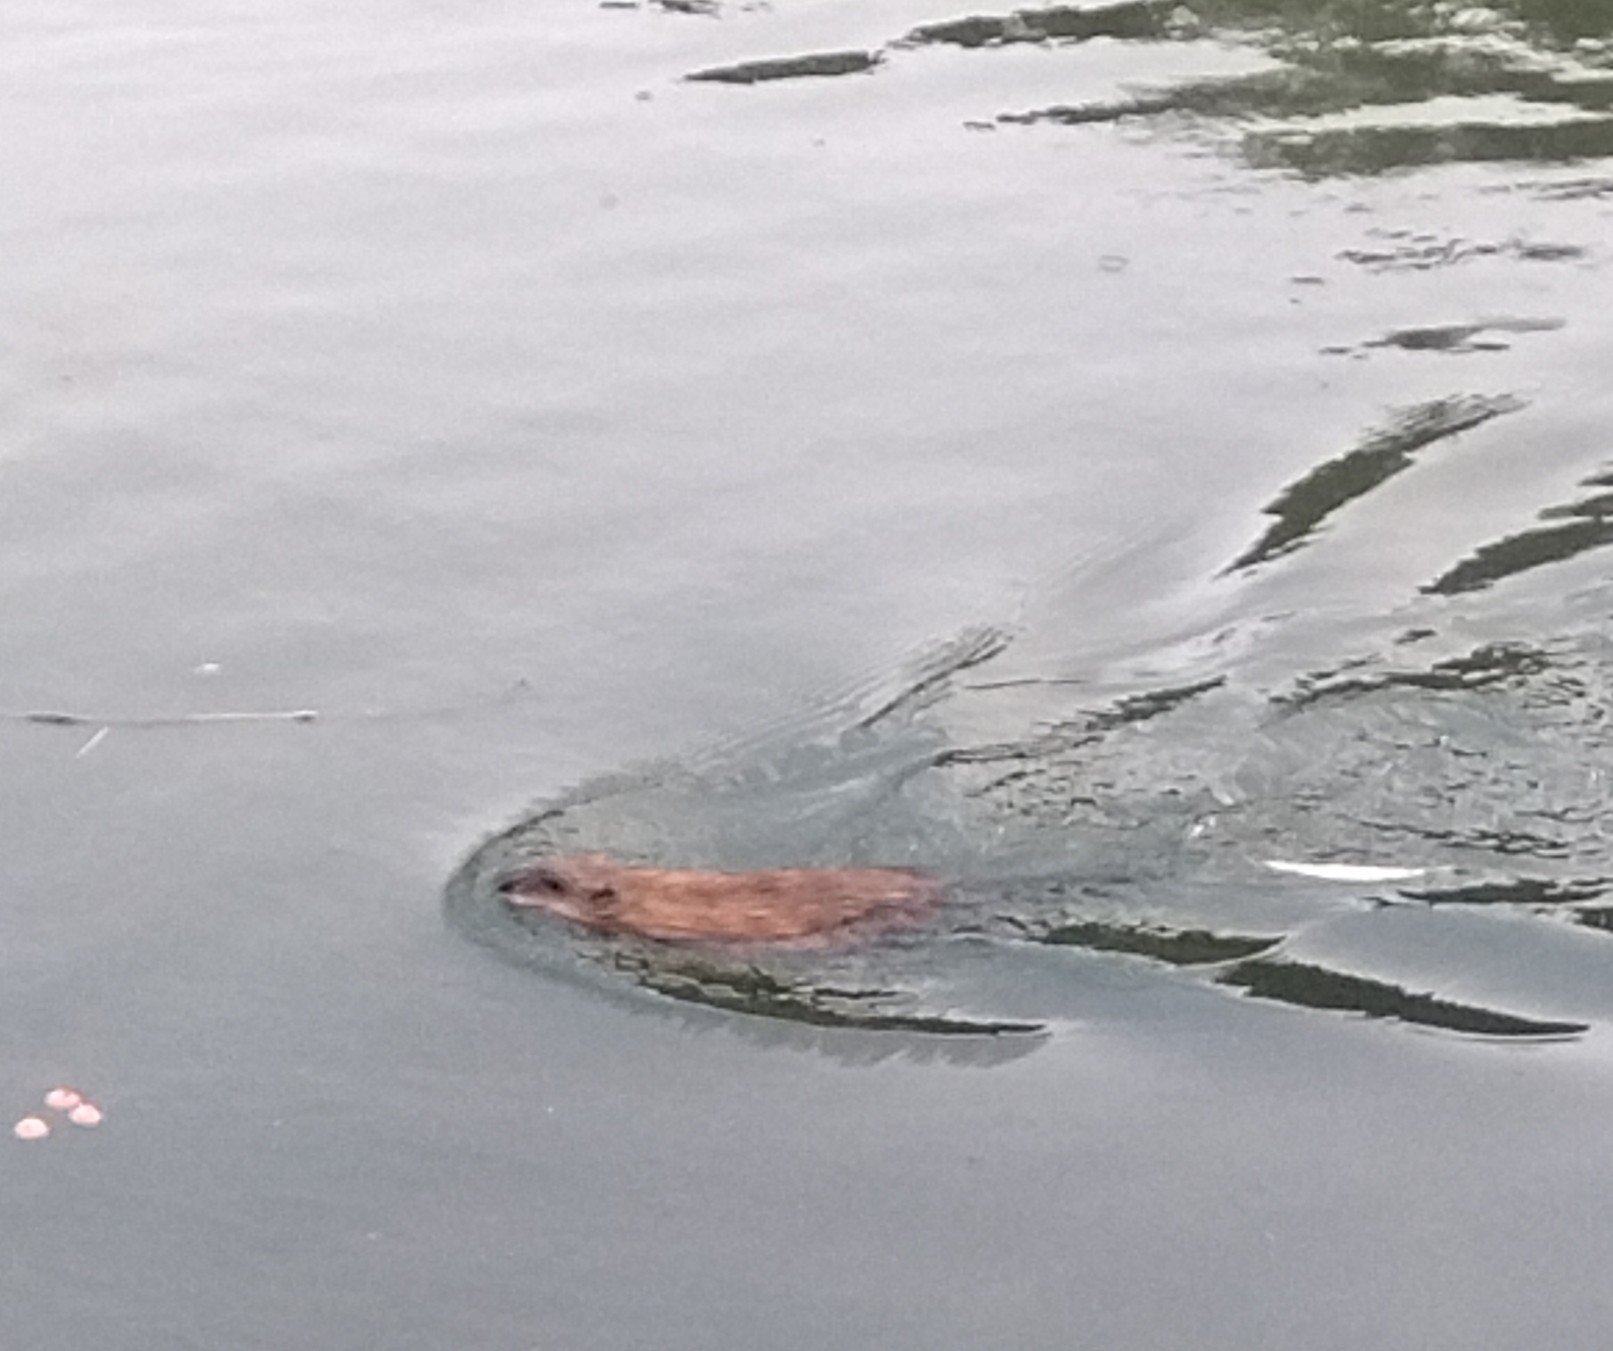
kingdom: Animalia
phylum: Chordata
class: Mammalia
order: Rodentia
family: Cricetidae
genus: Ondatra
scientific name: Ondatra zibethicus
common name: Muskrat
